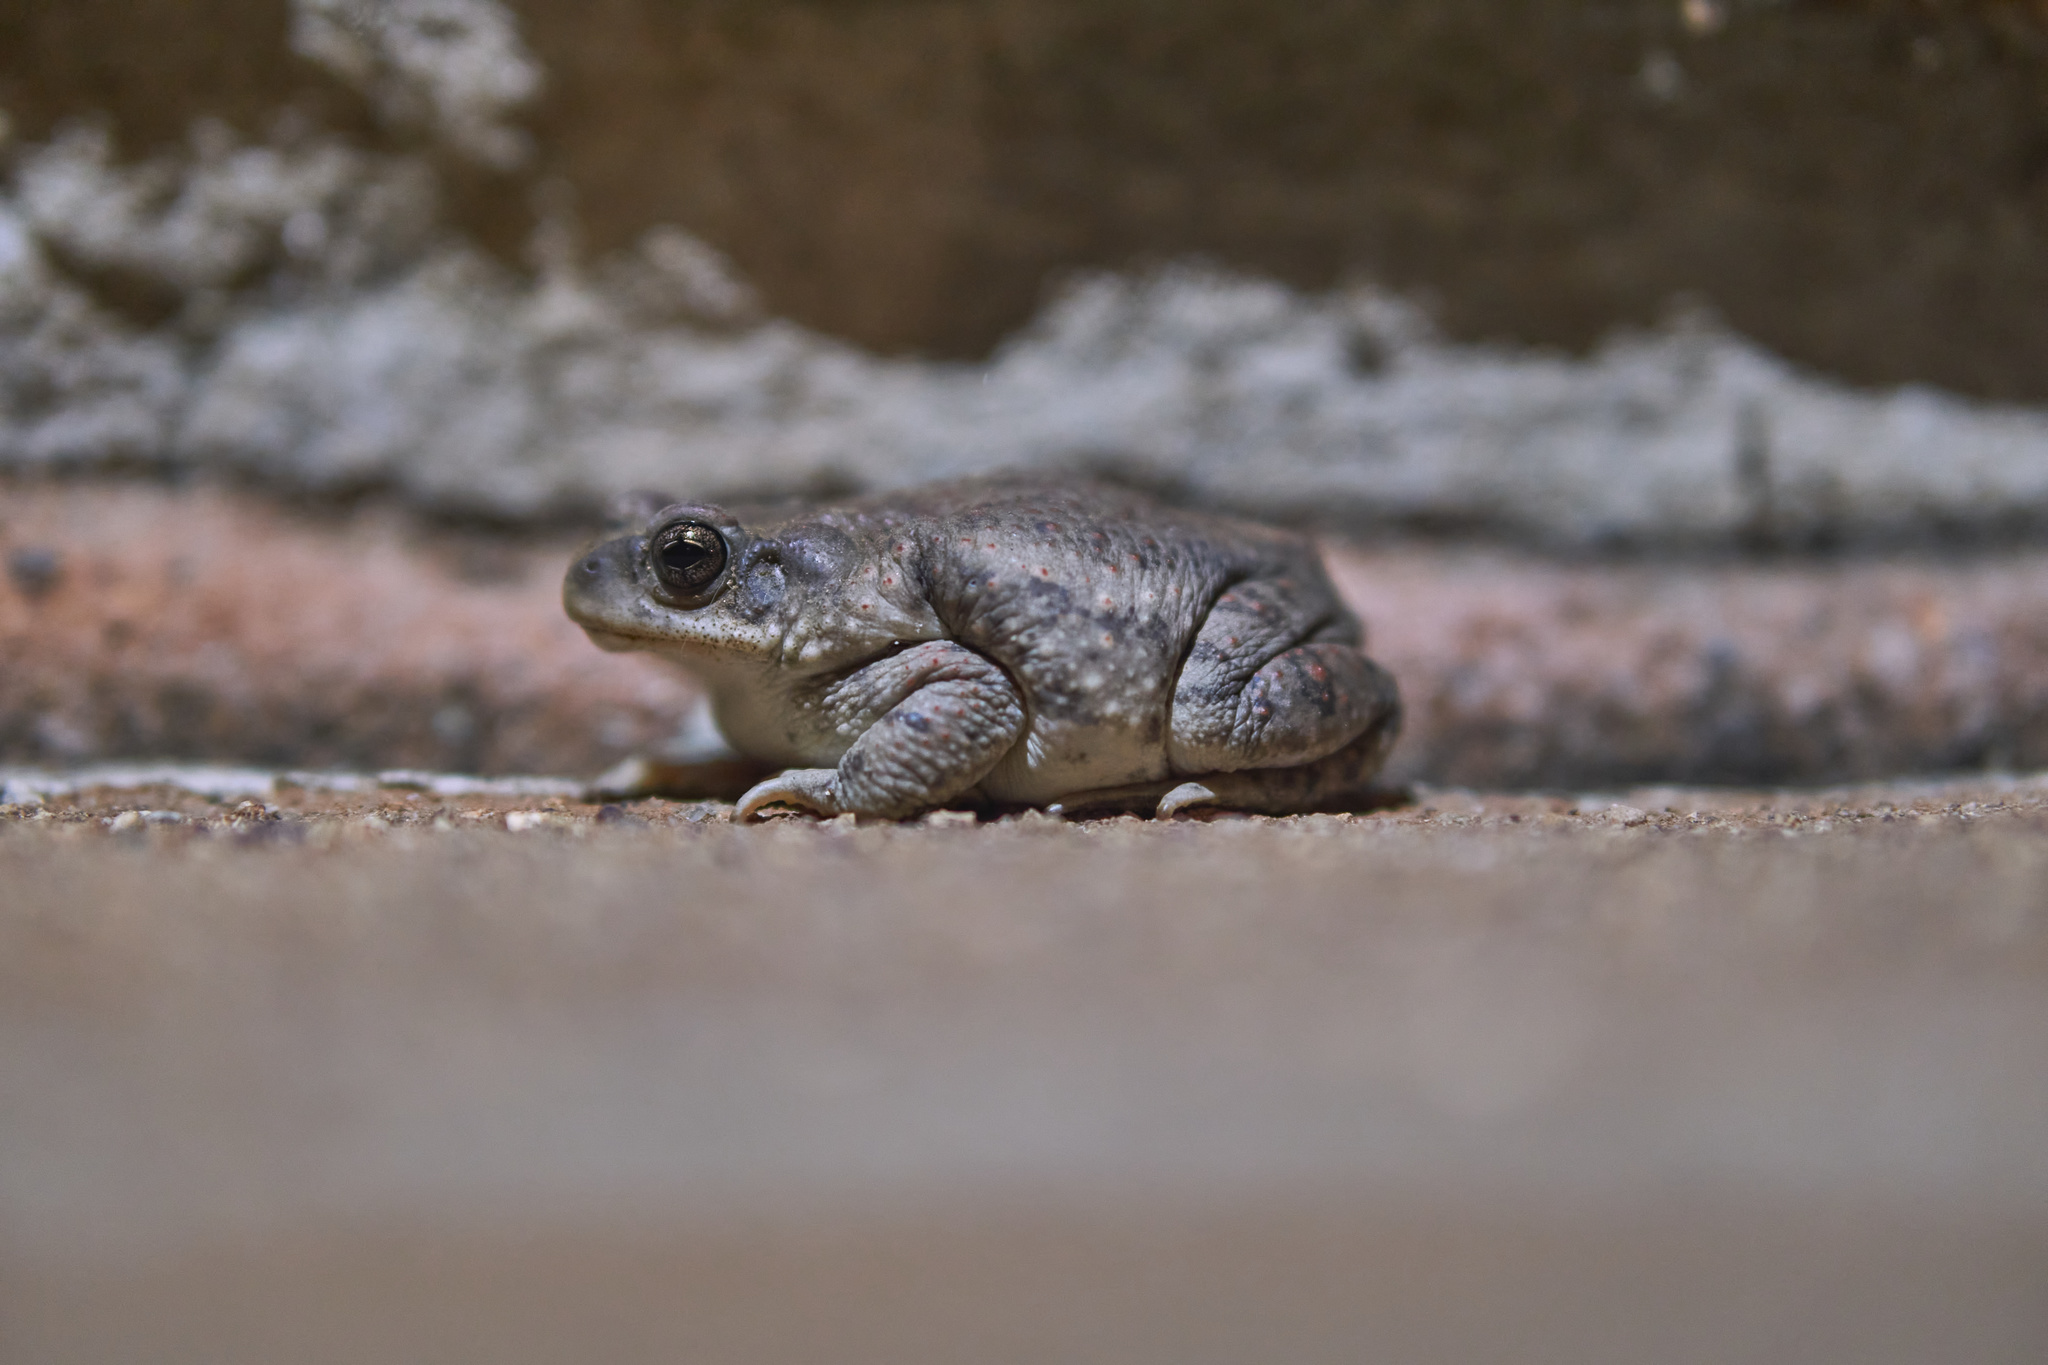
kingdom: Animalia
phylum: Chordata
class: Amphibia
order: Anura
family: Bufonidae
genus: Anaxyrus
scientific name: Anaxyrus punctatus
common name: Red-spotted toad
